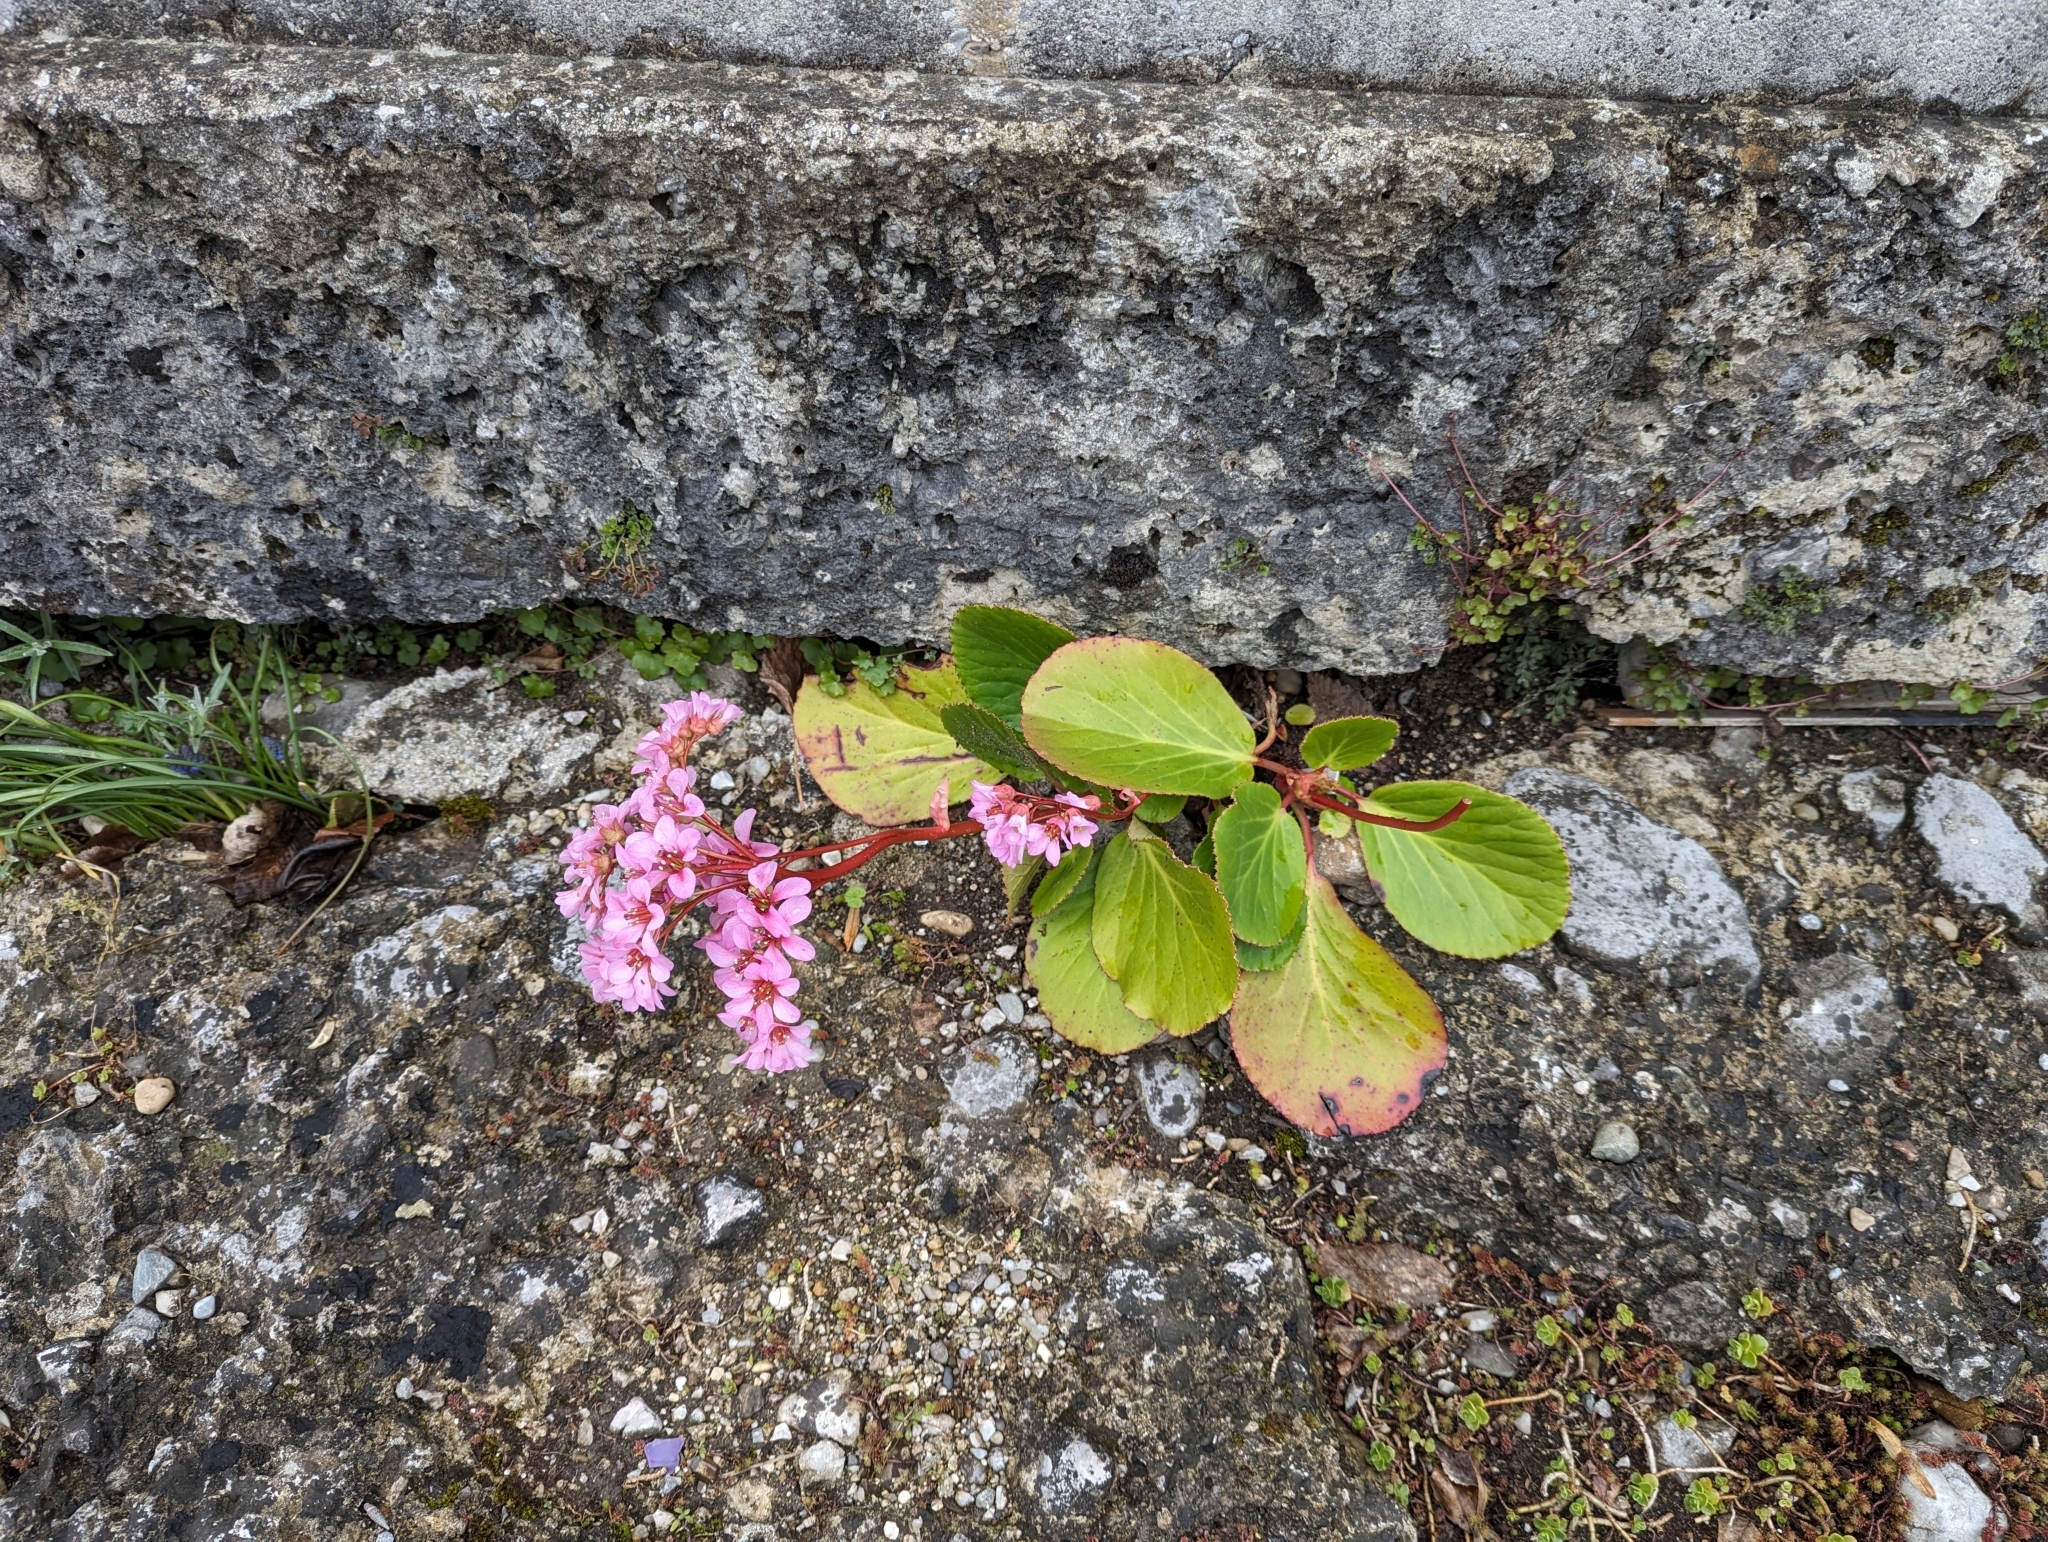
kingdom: Plantae
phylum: Tracheophyta
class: Magnoliopsida
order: Saxifragales
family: Saxifragaceae
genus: Bergenia
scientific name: Bergenia crassifolia
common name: Elephant-ears
